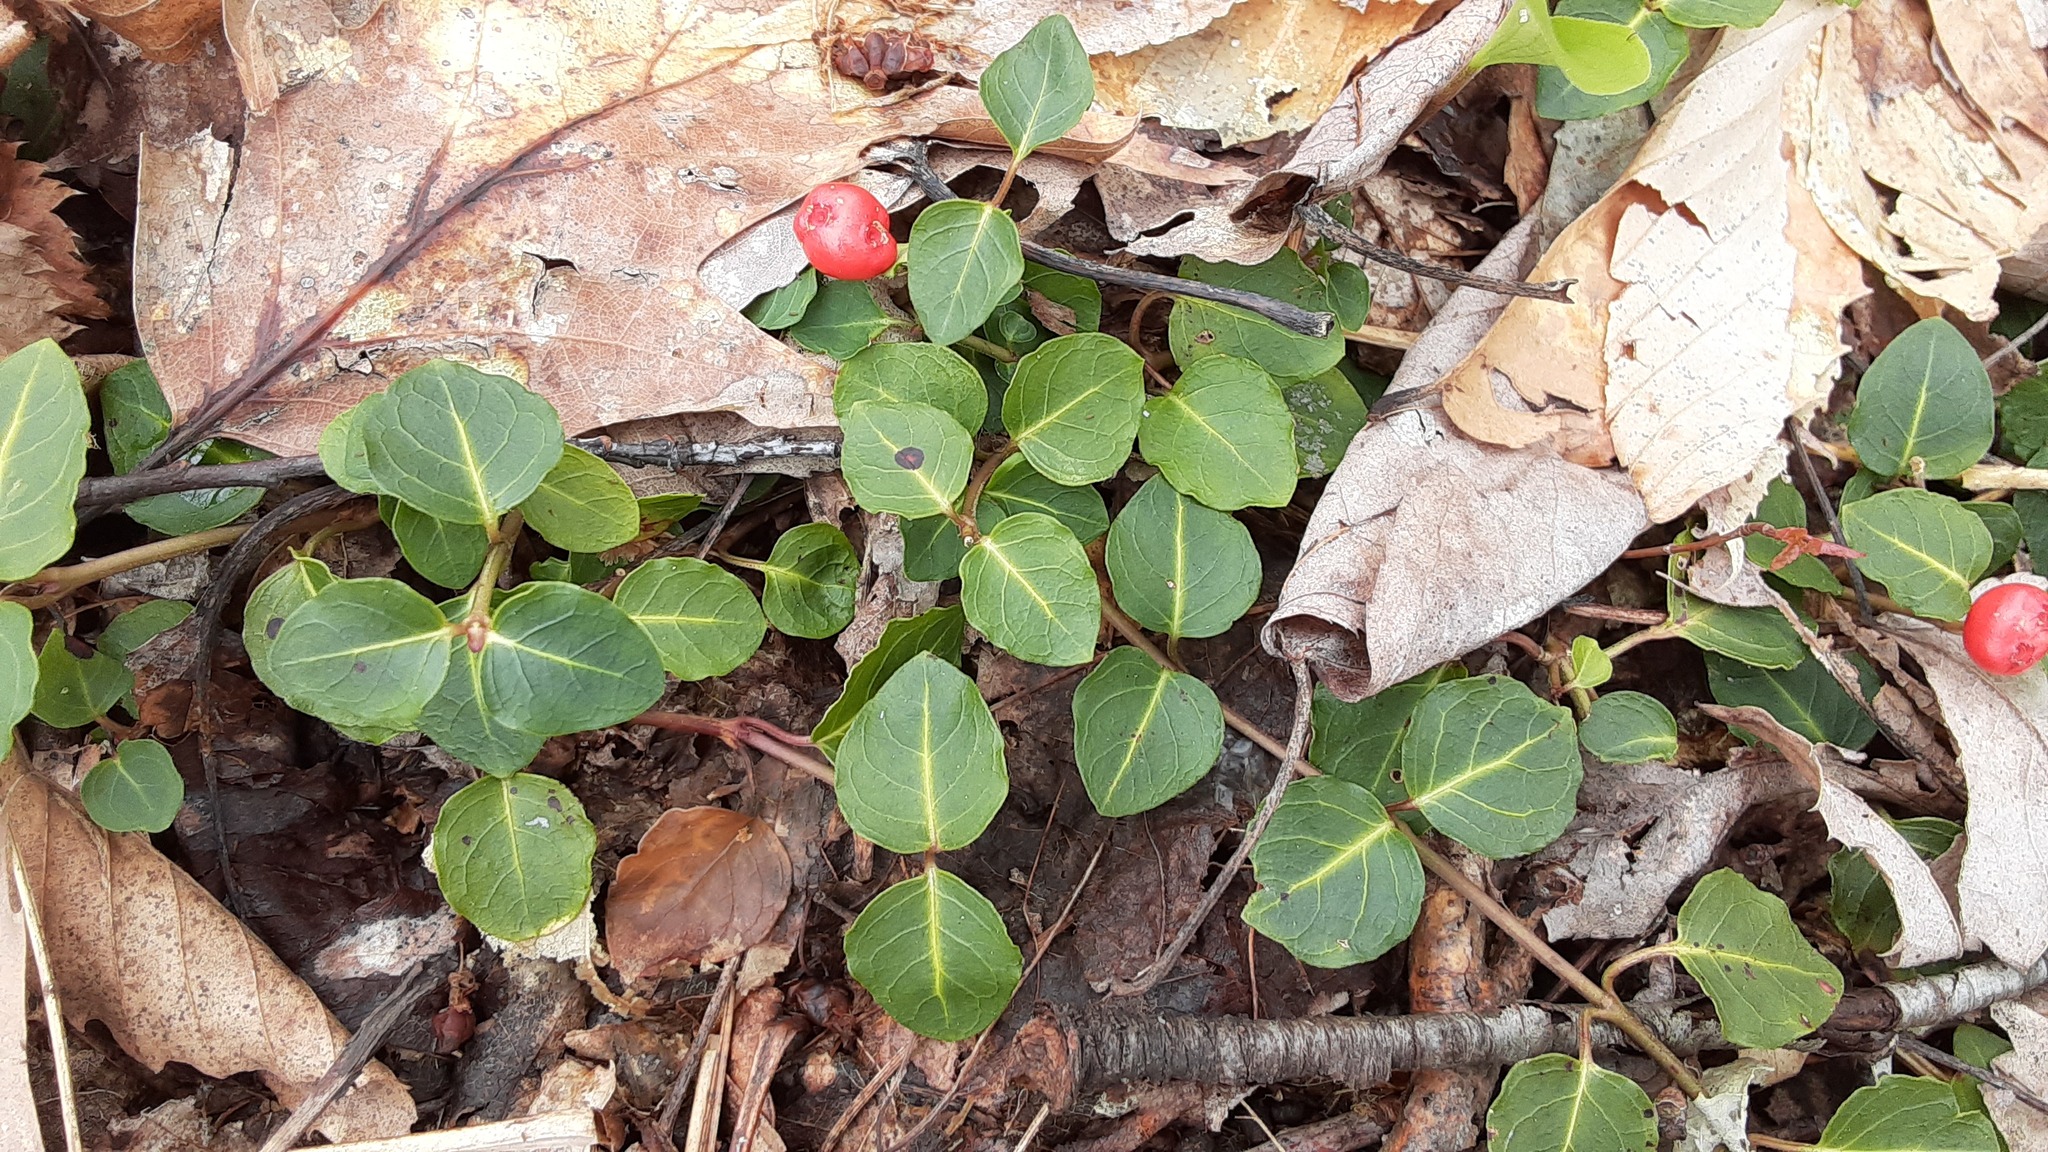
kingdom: Plantae
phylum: Tracheophyta
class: Magnoliopsida
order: Gentianales
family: Rubiaceae
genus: Mitchella
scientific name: Mitchella repens
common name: Partridge-berry
